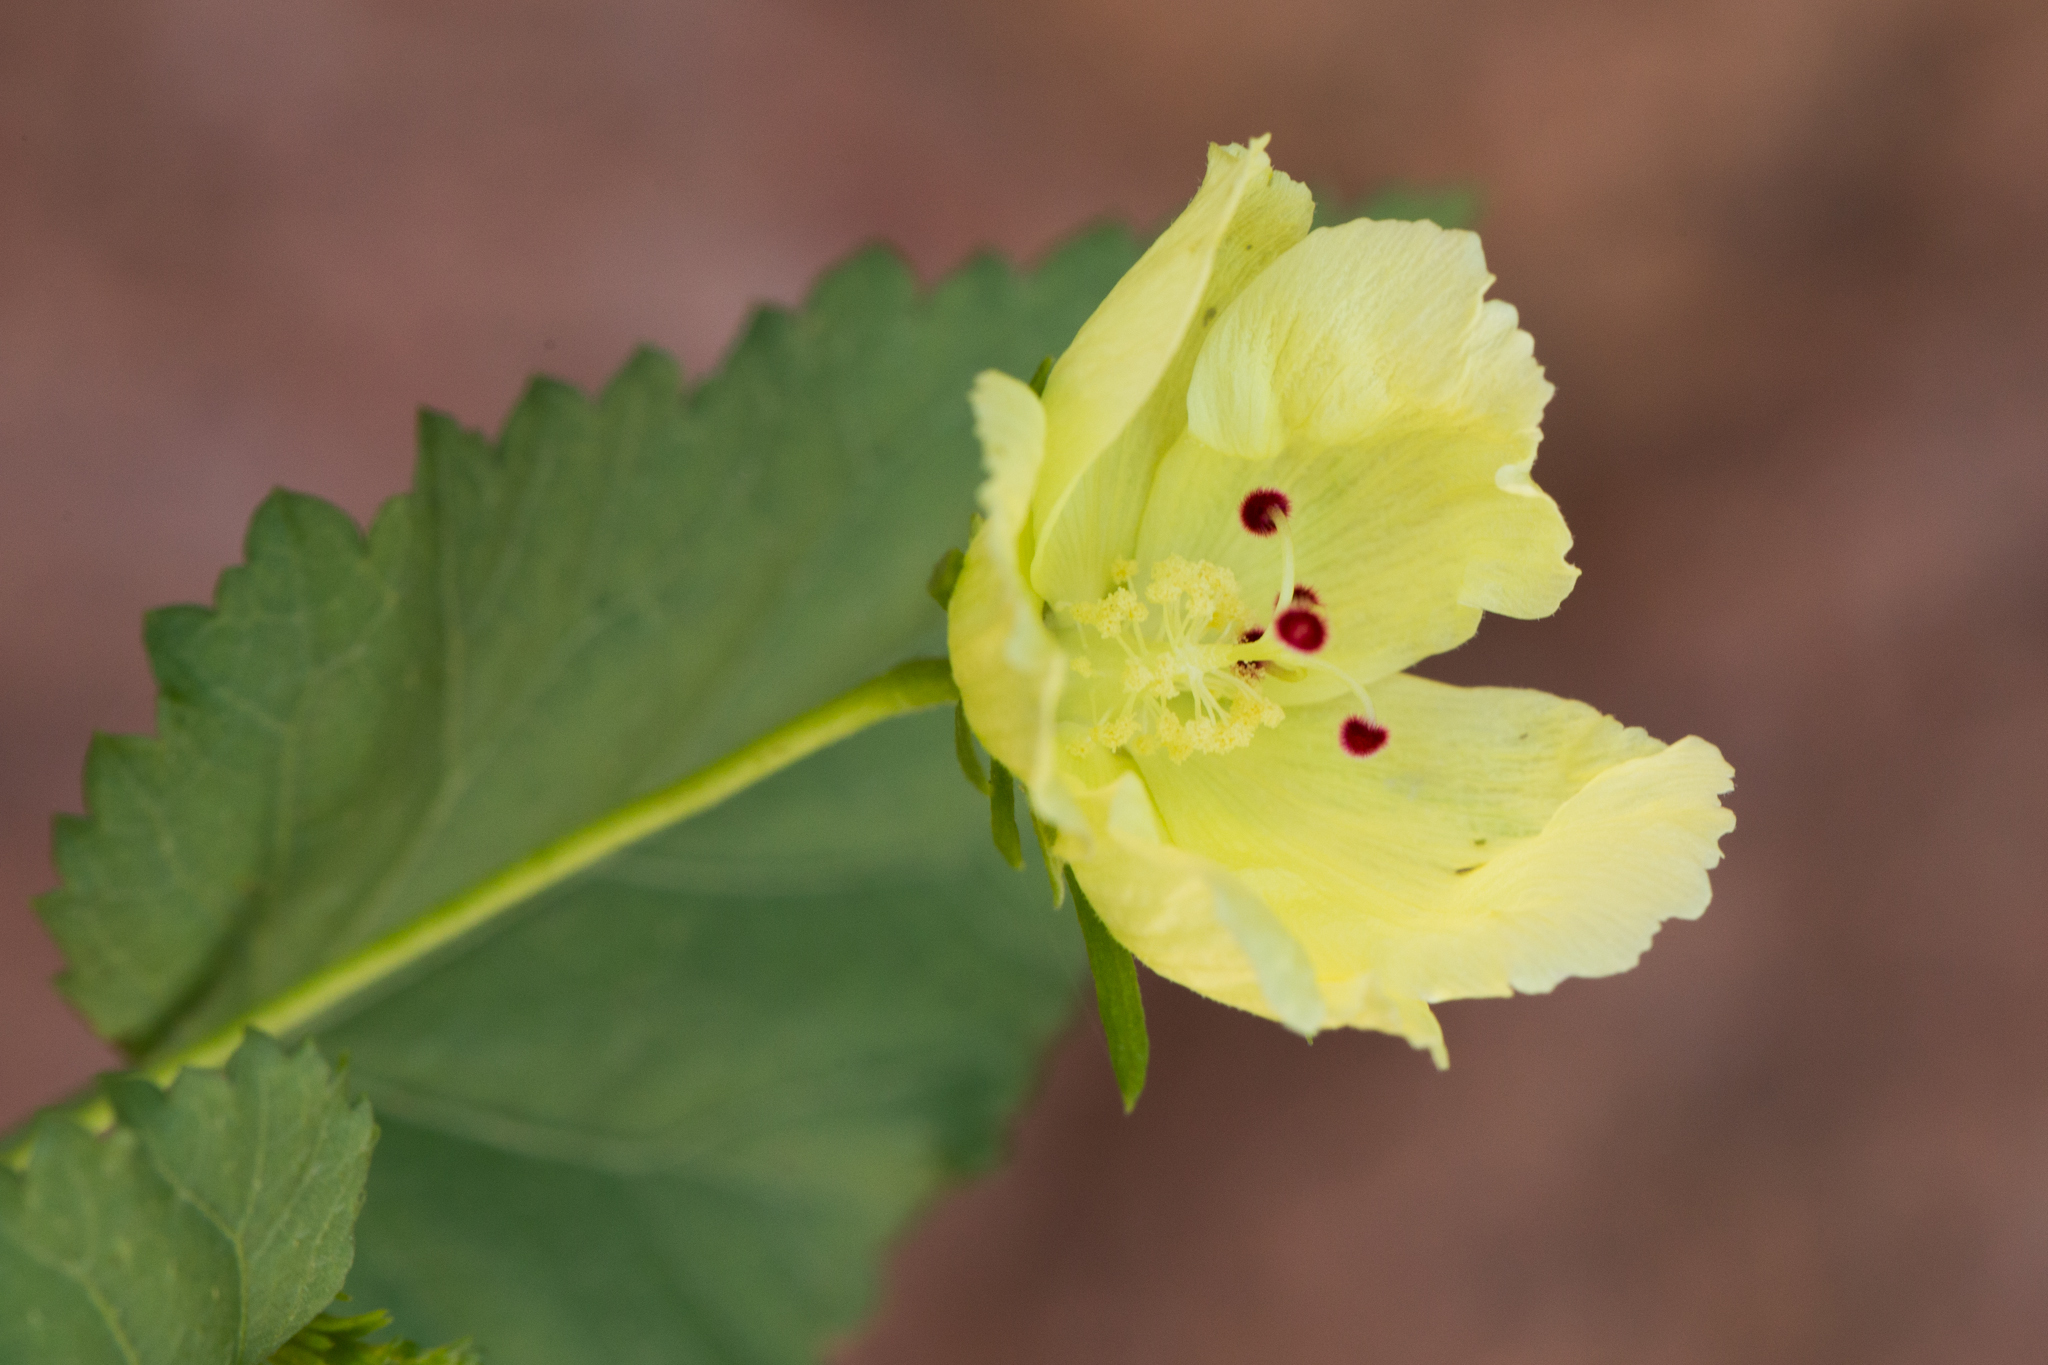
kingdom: Plantae
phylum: Tracheophyta
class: Magnoliopsida
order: Malvales
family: Malvaceae
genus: Hibiscus
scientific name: Hibiscus ribifolius
